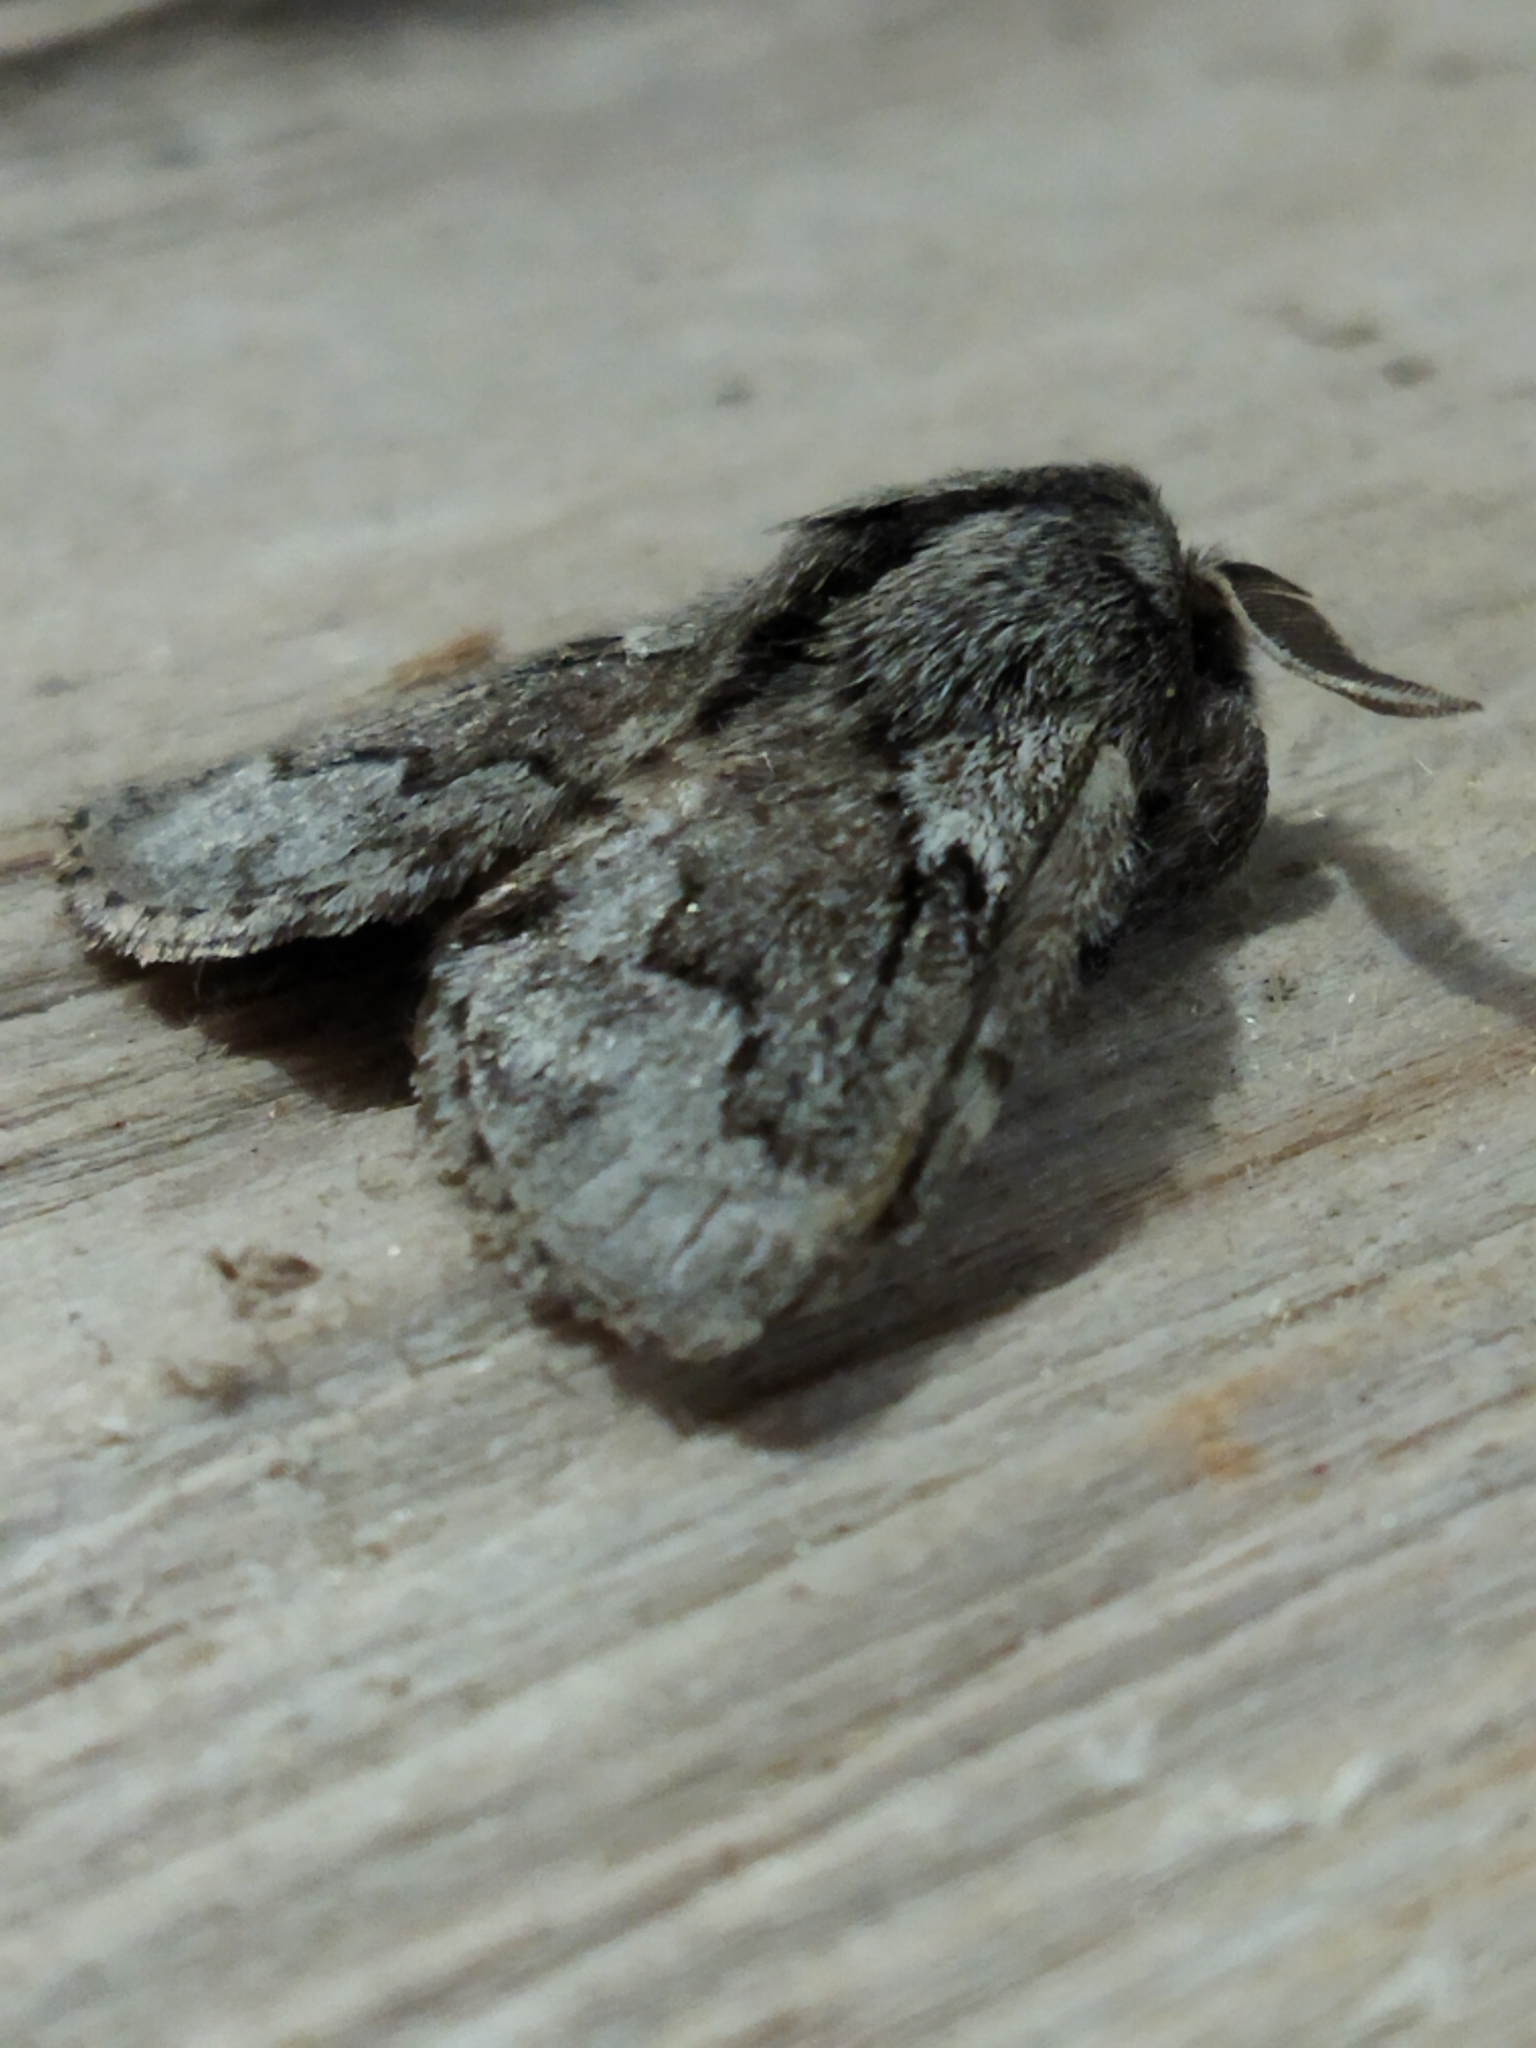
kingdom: Animalia
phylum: Arthropoda
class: Insecta
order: Lepidoptera
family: Lasiocampidae
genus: Trichiura
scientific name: Trichiura crataegi
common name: Pale eggar
